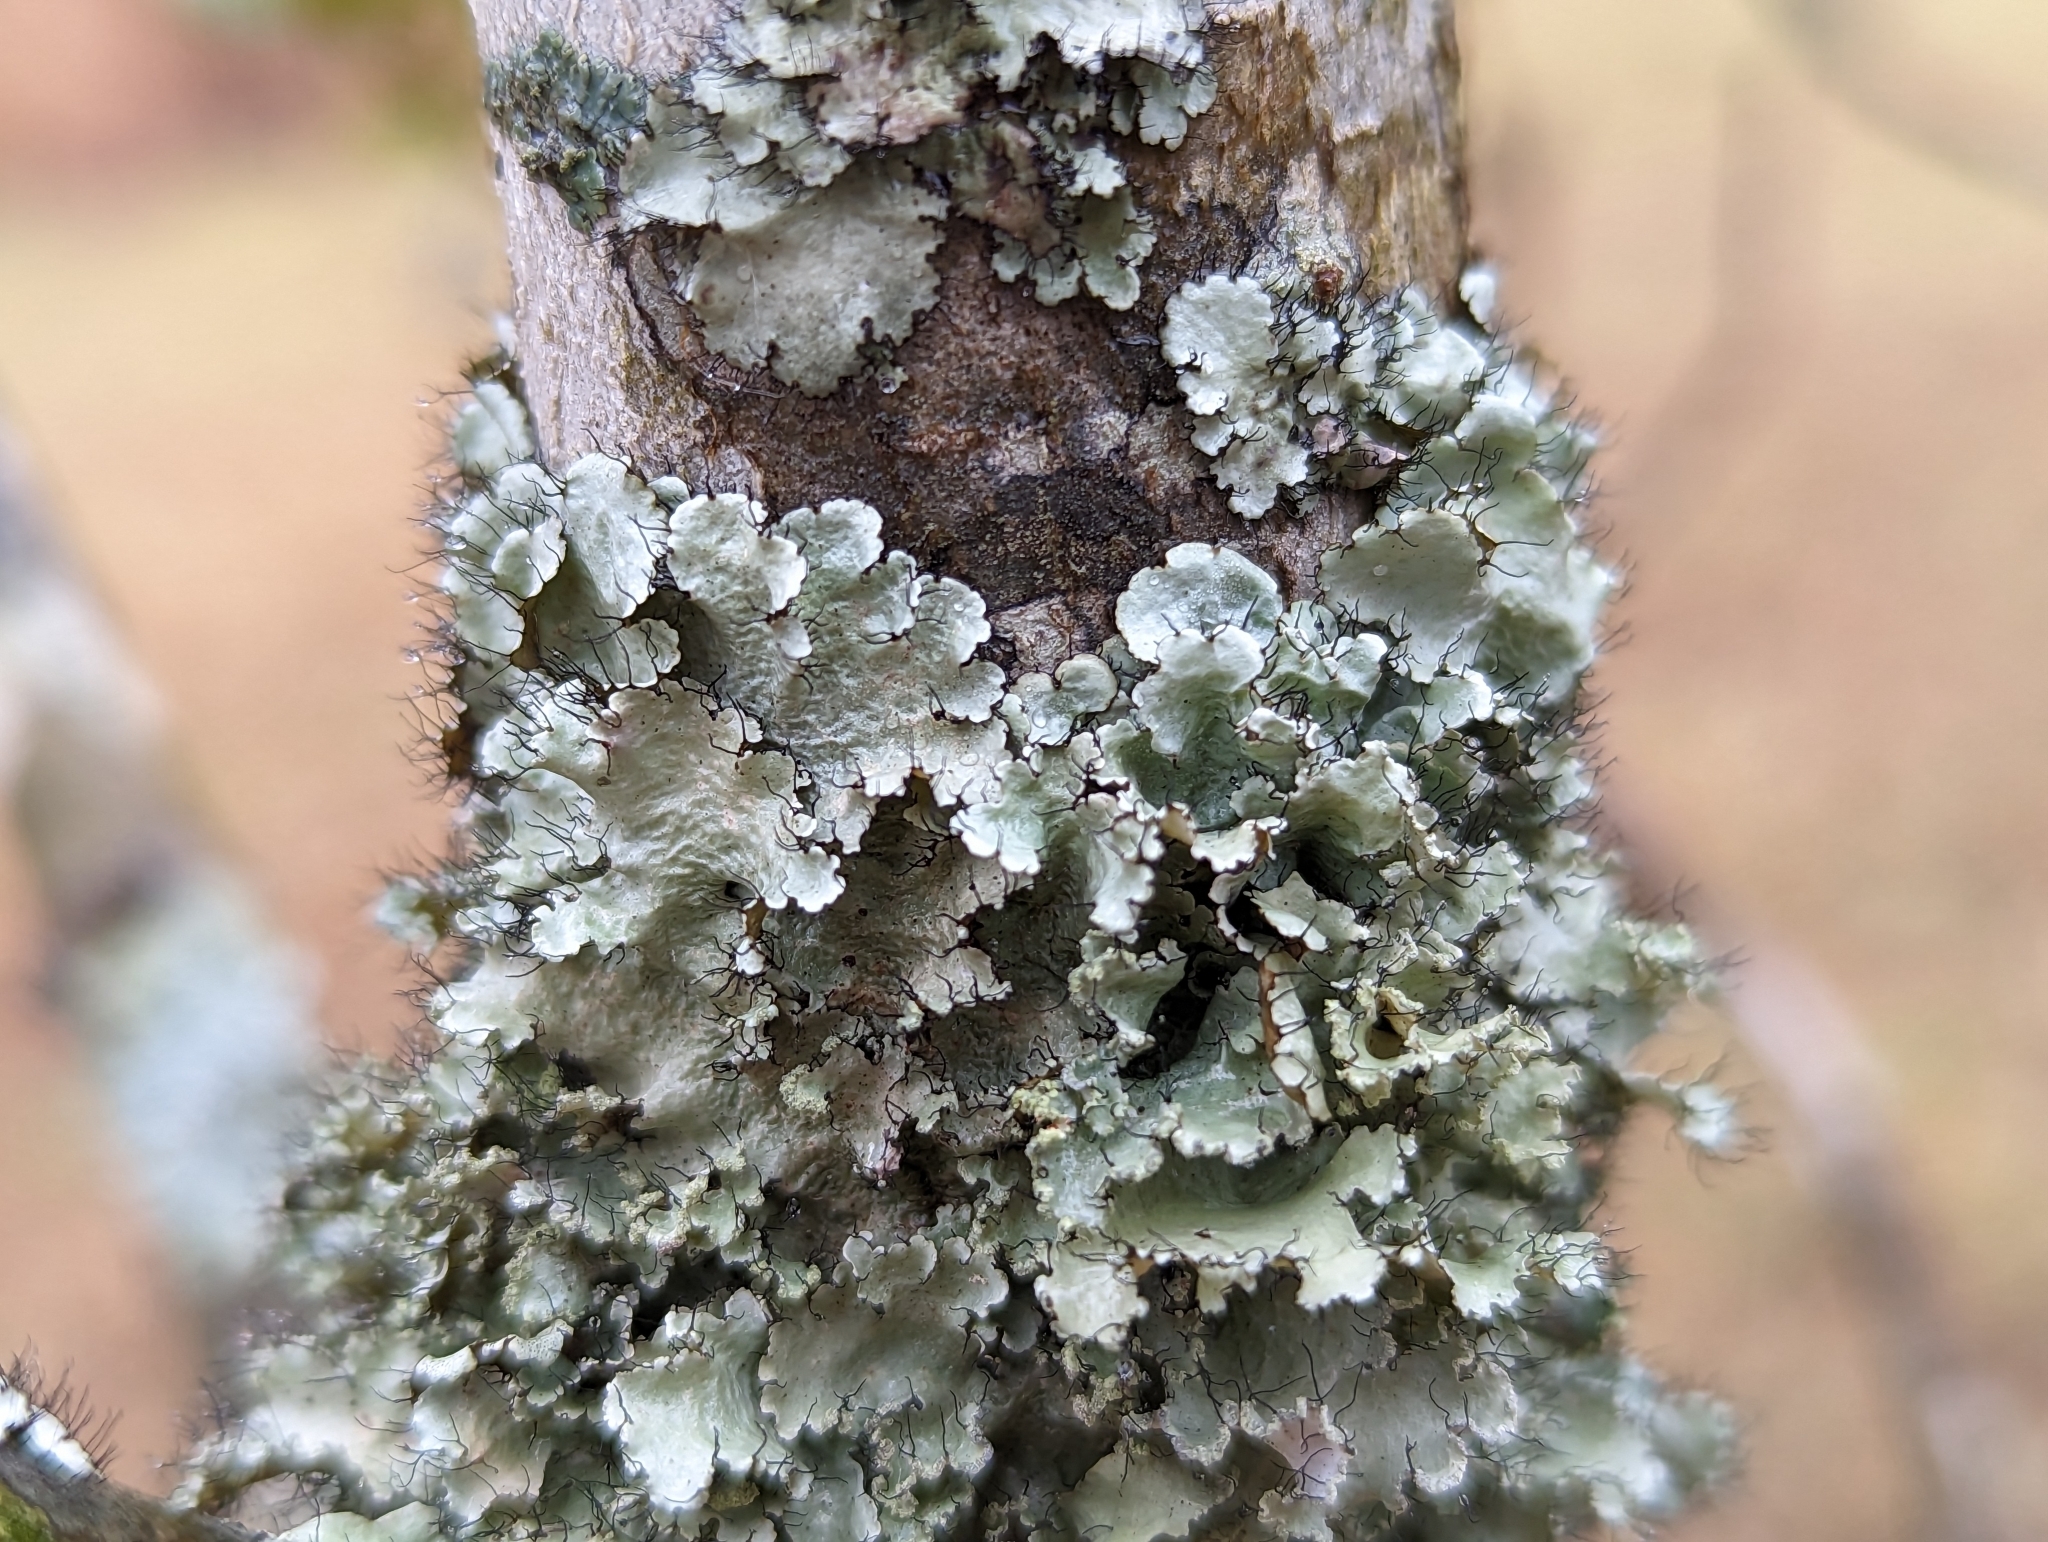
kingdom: Fungi
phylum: Ascomycota
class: Lecanoromycetes
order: Lecanorales
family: Parmeliaceae
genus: Parmotrema
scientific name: Parmotrema hypotropum
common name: Powdered ruffle lichen
